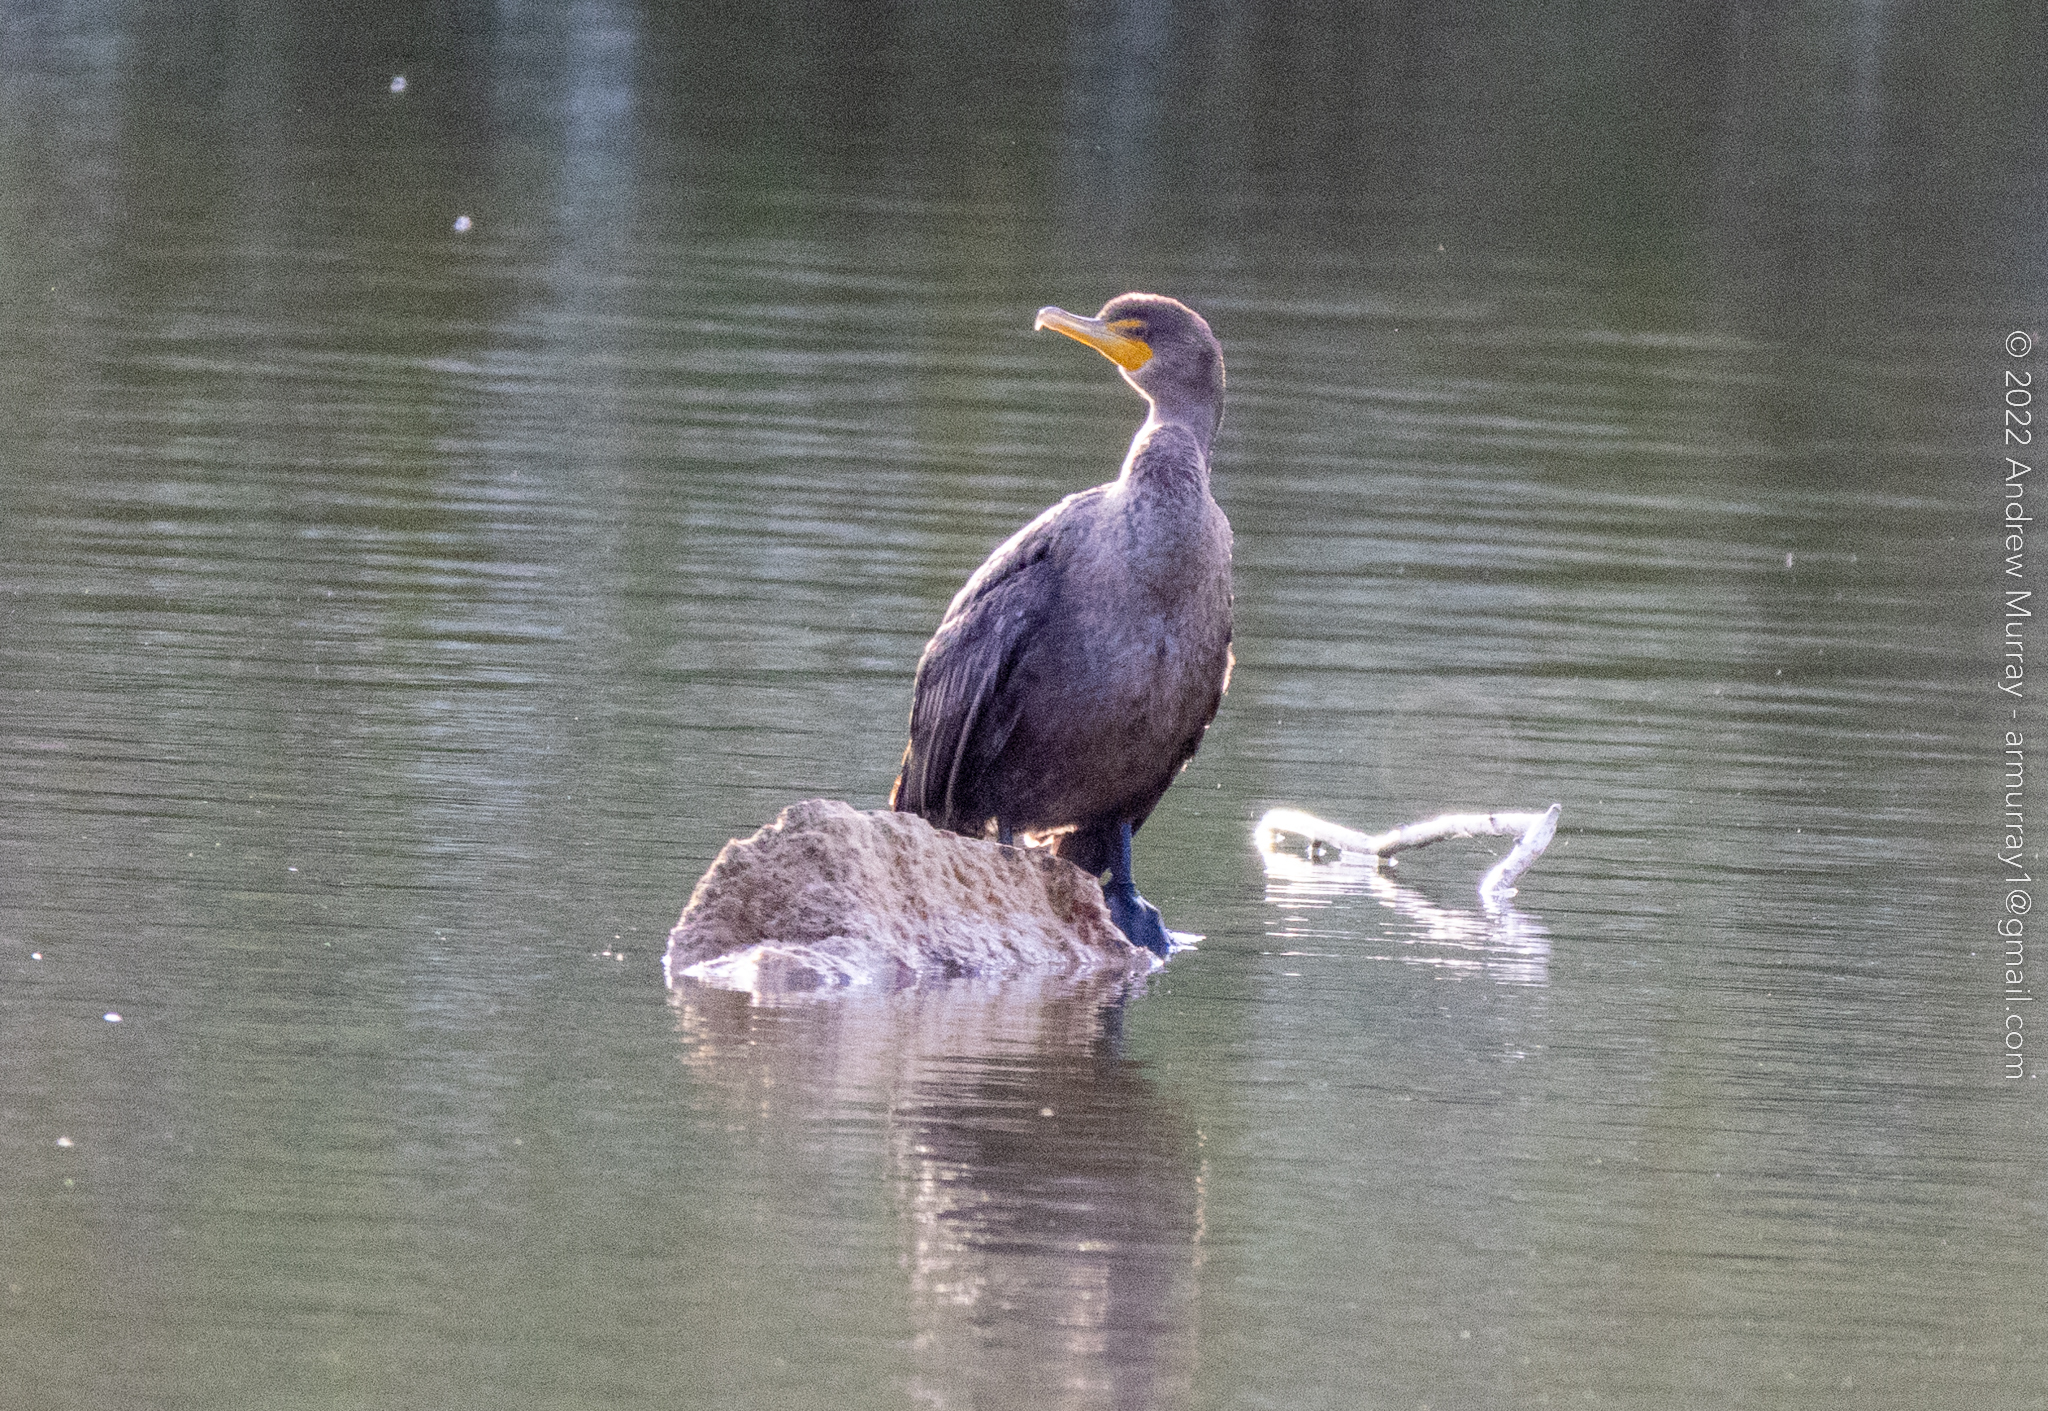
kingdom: Animalia
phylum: Chordata
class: Aves
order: Suliformes
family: Phalacrocoracidae
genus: Phalacrocorax
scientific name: Phalacrocorax auritus
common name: Double-crested cormorant
